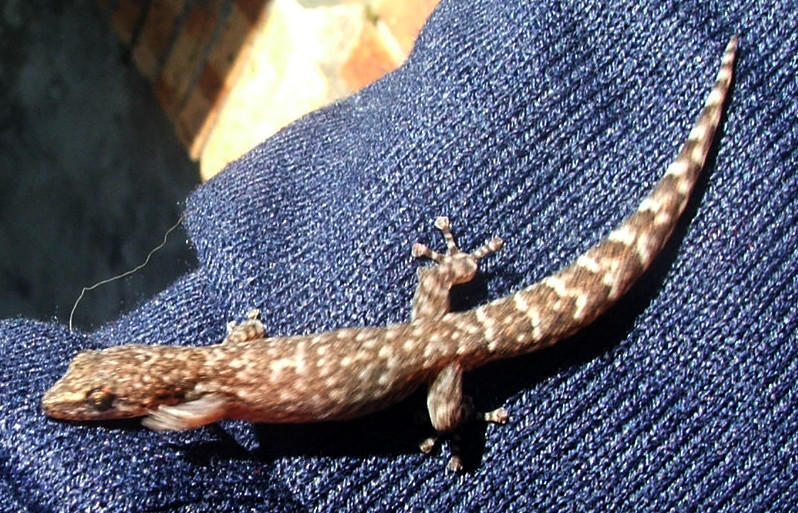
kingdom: Animalia
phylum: Chordata
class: Squamata
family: Gekkonidae
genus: Afrogecko
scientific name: Afrogecko porphyreus
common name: Marbled leaf-toed gecko
